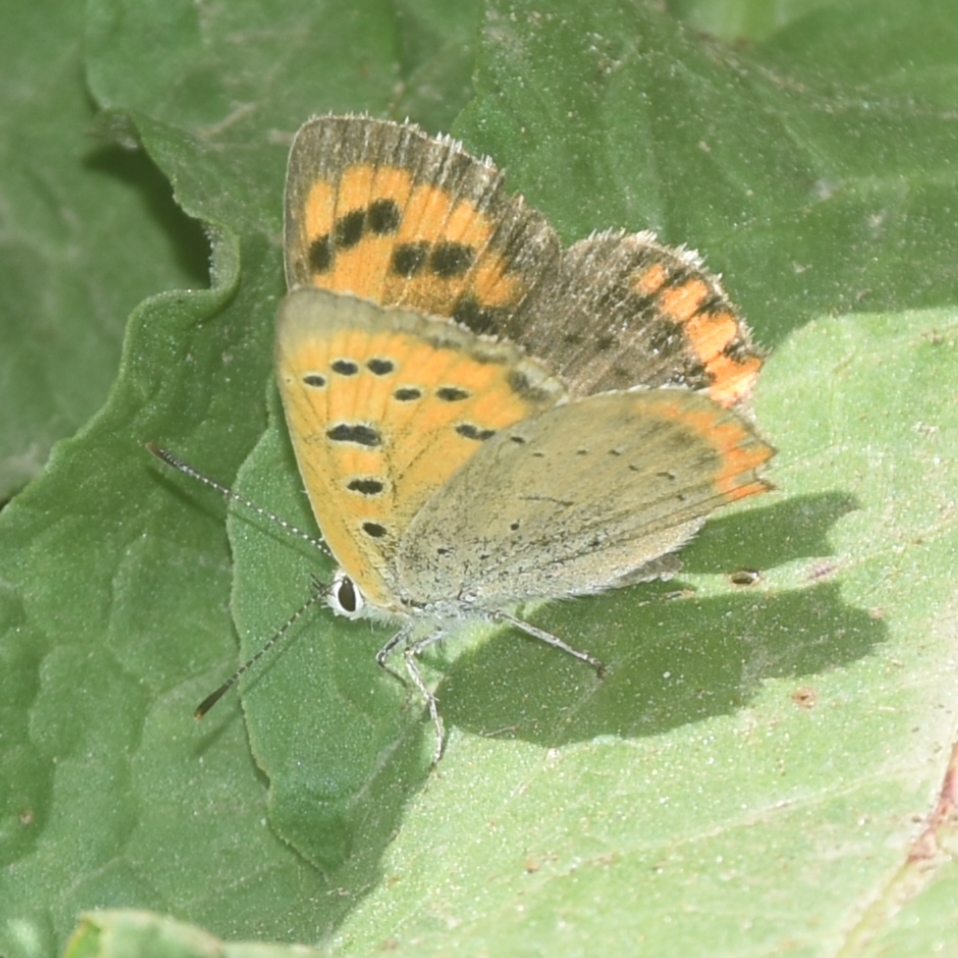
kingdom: Animalia
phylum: Arthropoda
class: Insecta
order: Lepidoptera
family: Lycaenidae
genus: Lycaena
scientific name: Lycaena phlaeas
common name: Small copper
